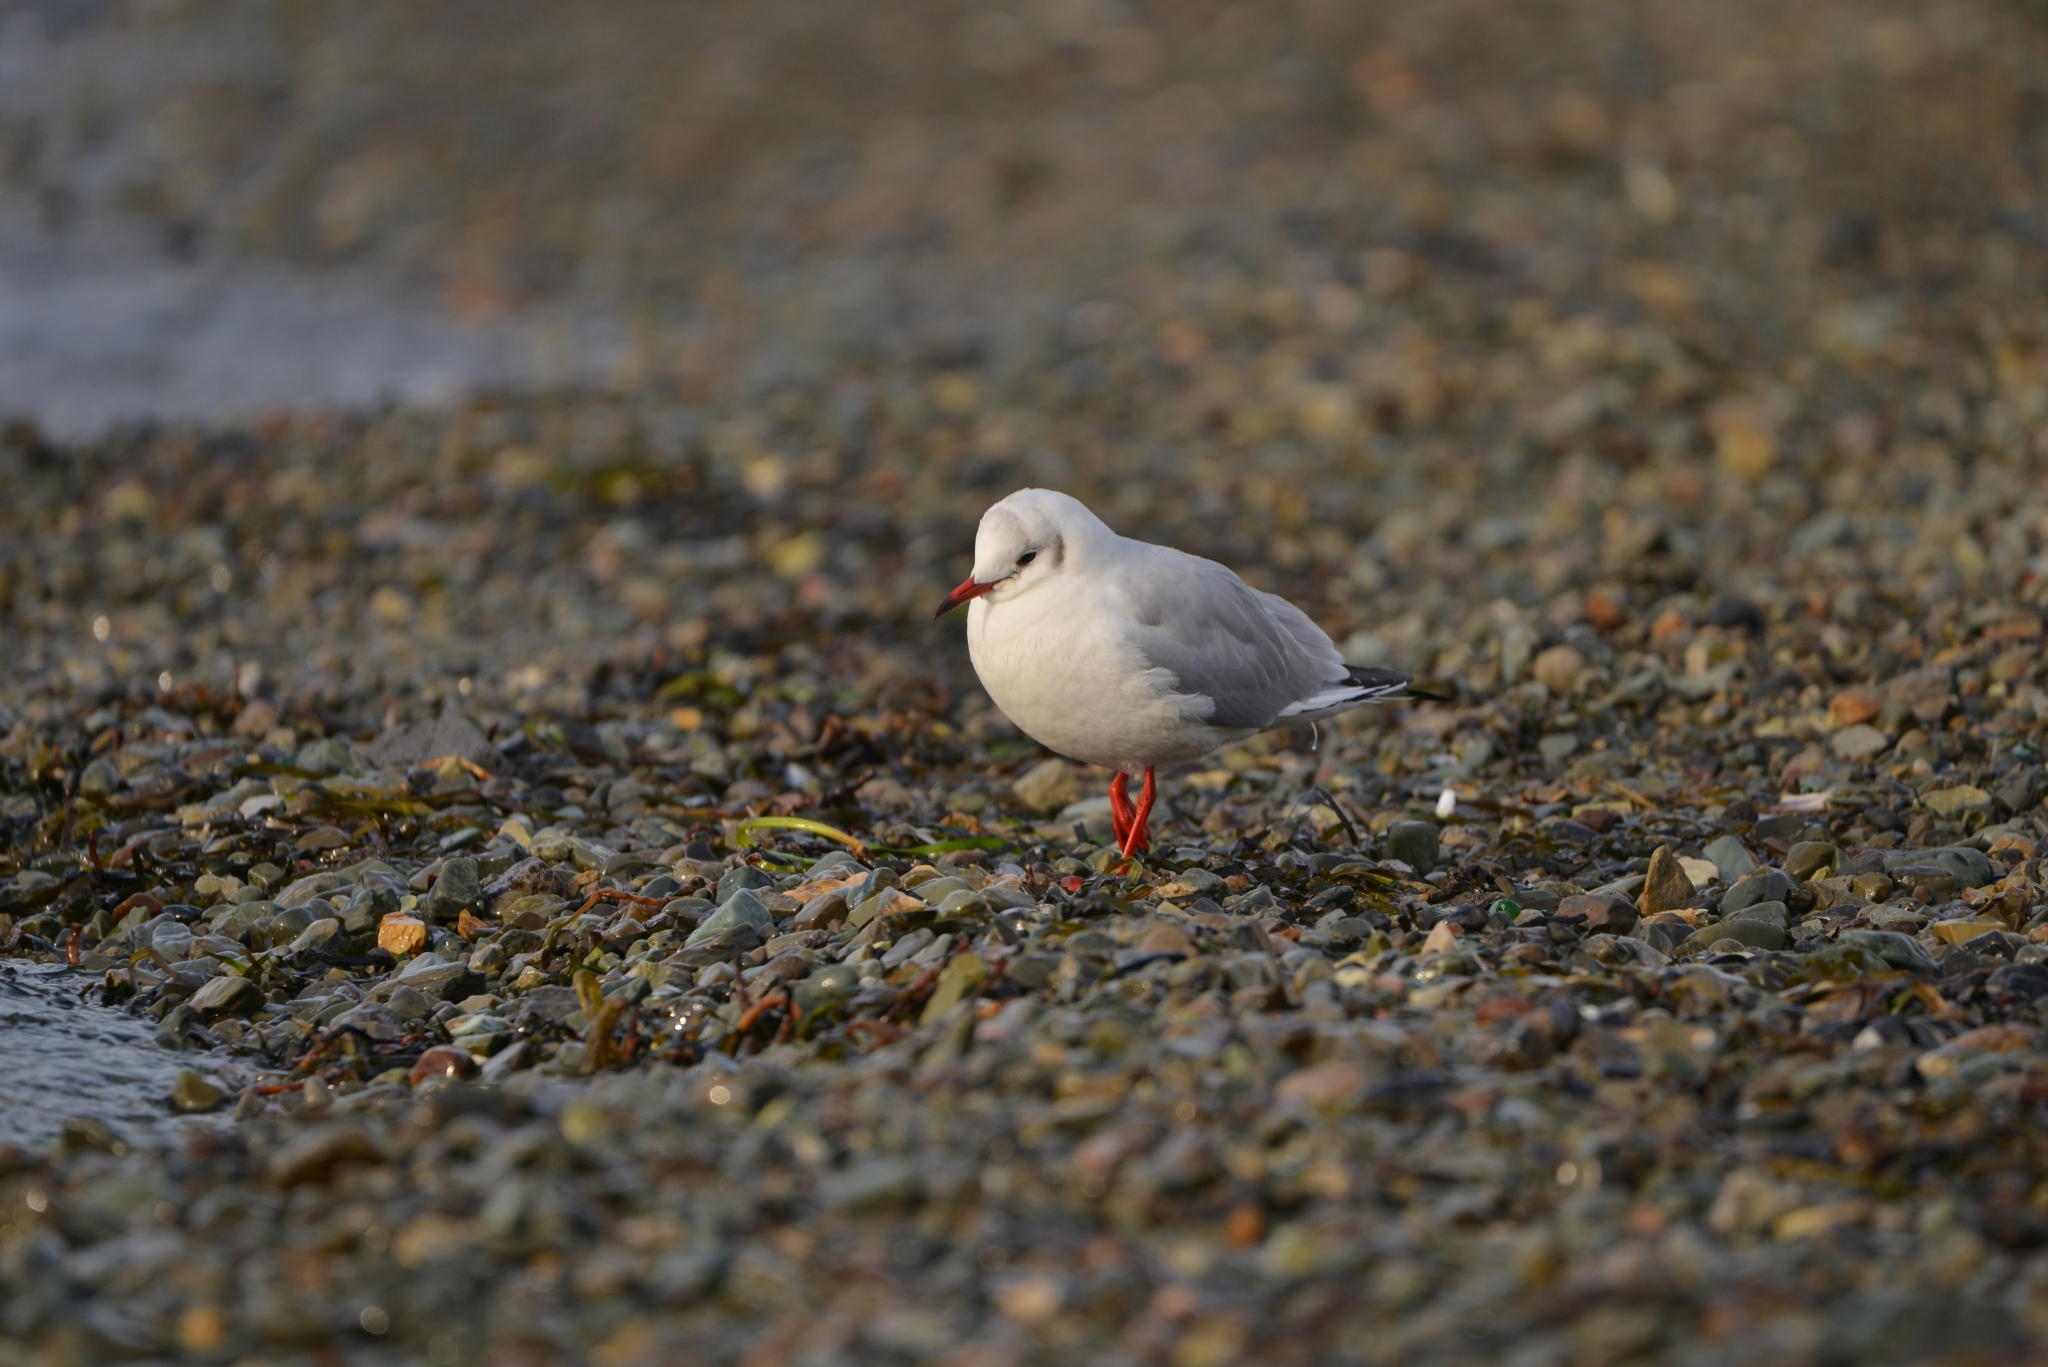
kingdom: Animalia
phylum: Chordata
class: Aves
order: Charadriiformes
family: Laridae
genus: Chroicocephalus
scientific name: Chroicocephalus ridibundus
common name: Black-headed gull
